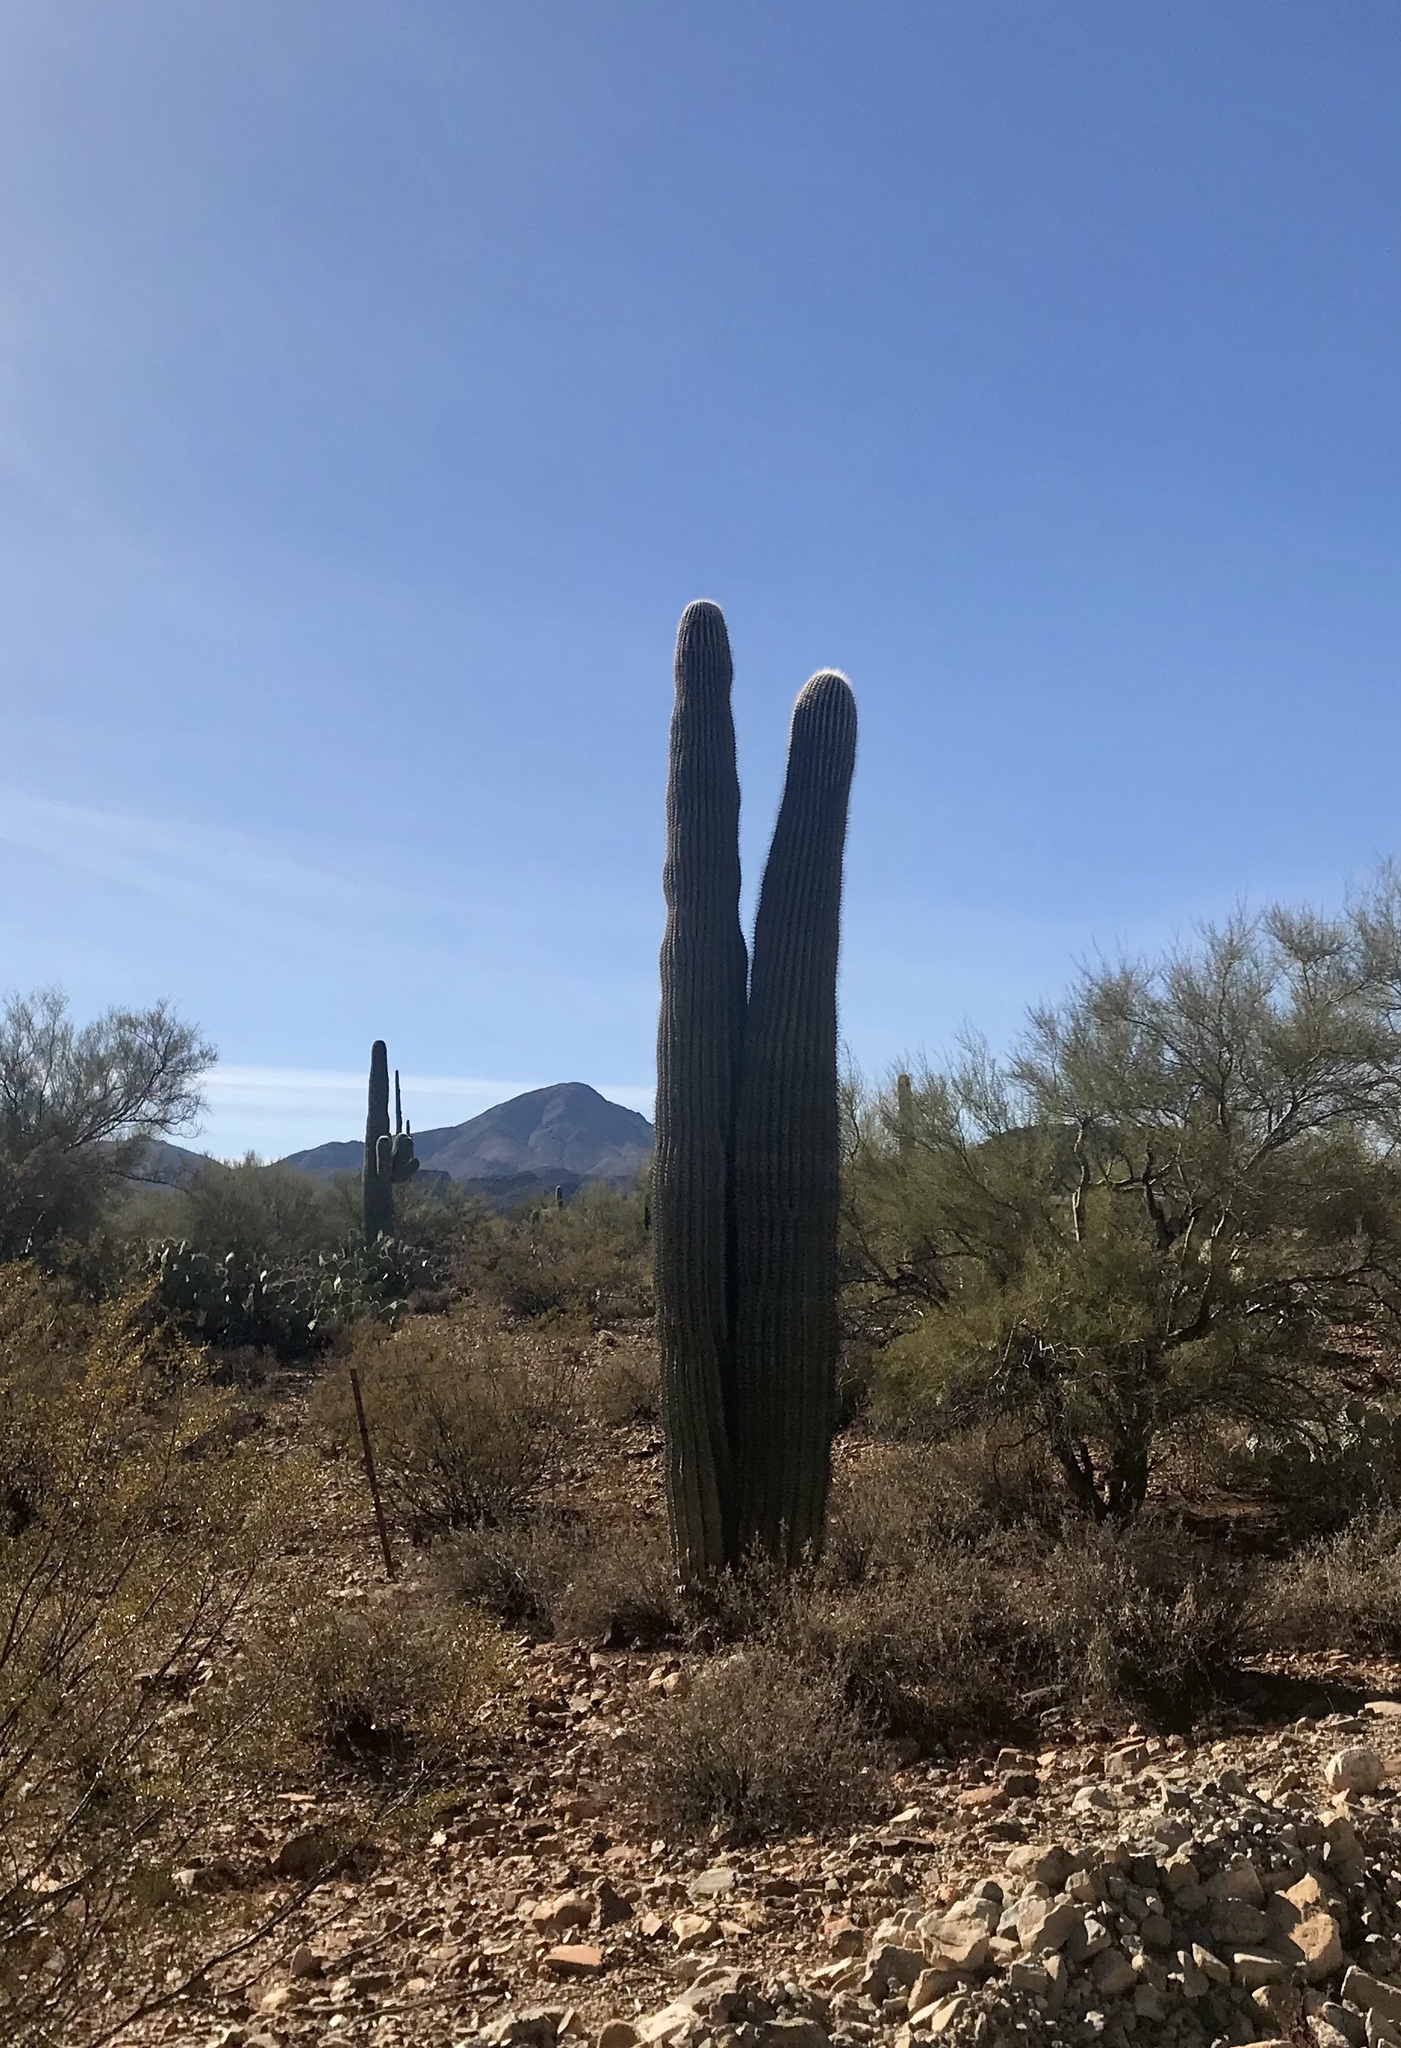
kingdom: Plantae
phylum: Tracheophyta
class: Magnoliopsida
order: Caryophyllales
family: Cactaceae
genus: Carnegiea
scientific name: Carnegiea gigantea
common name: Saguaro
